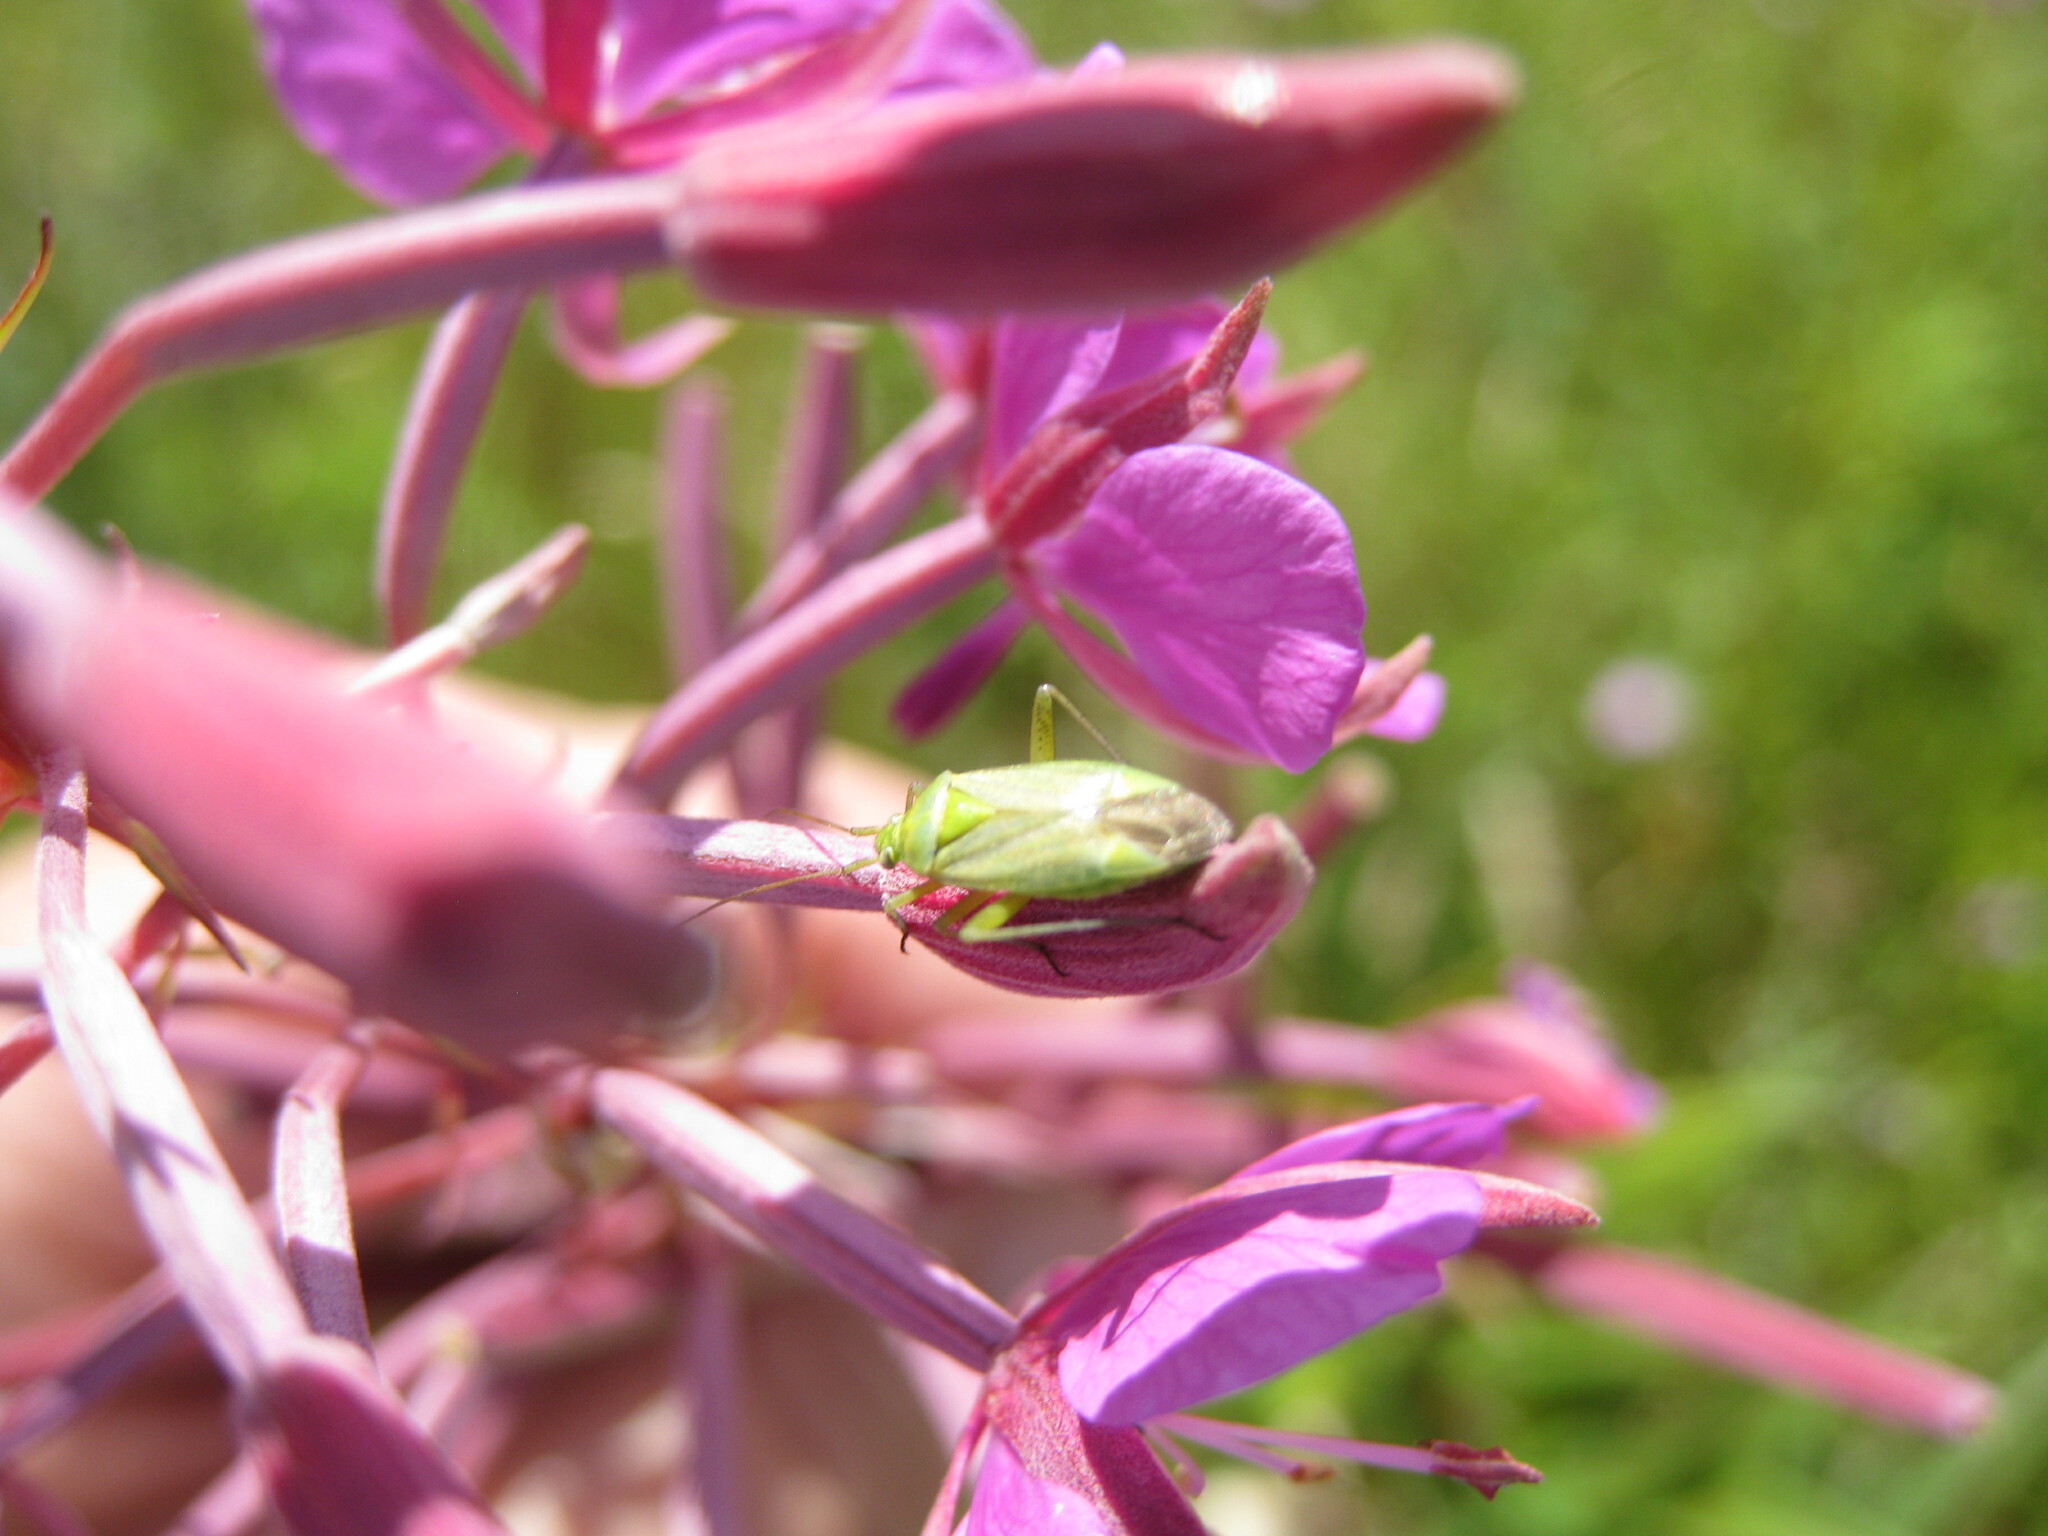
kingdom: Animalia
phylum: Arthropoda
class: Insecta
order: Hemiptera
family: Miridae
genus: Closterotomus
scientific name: Closterotomus norvegicus
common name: Plant bug
